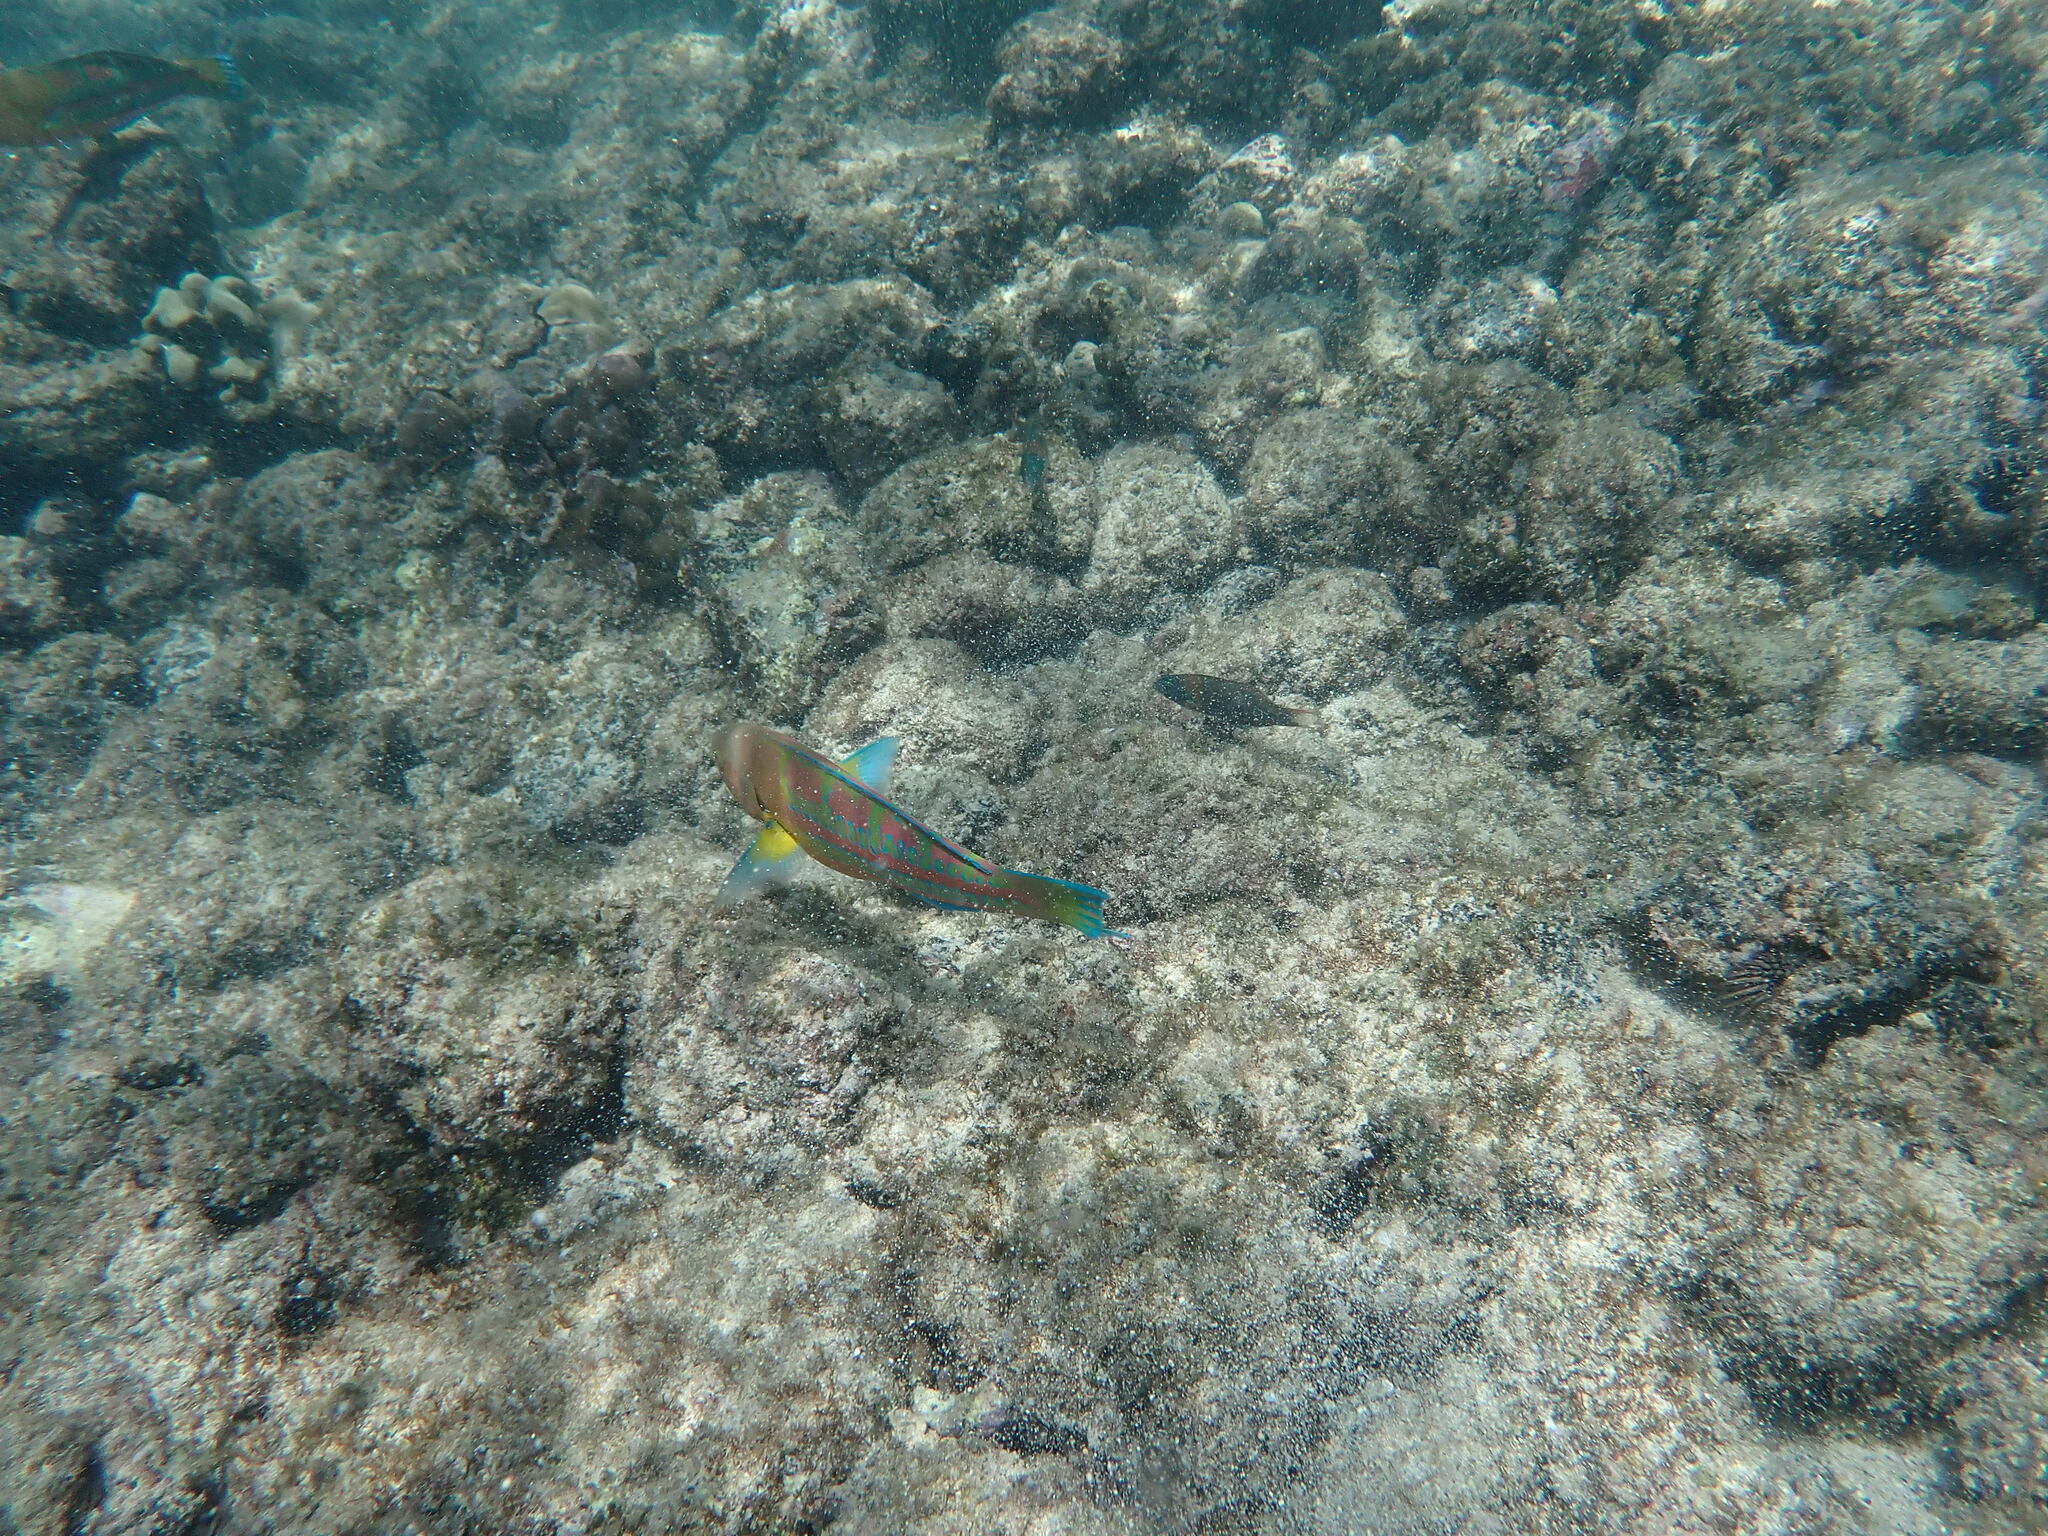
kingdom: Animalia
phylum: Chordata
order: Perciformes
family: Labridae
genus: Thalassoma
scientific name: Thalassoma trilobatum
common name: Christmas wrasse
